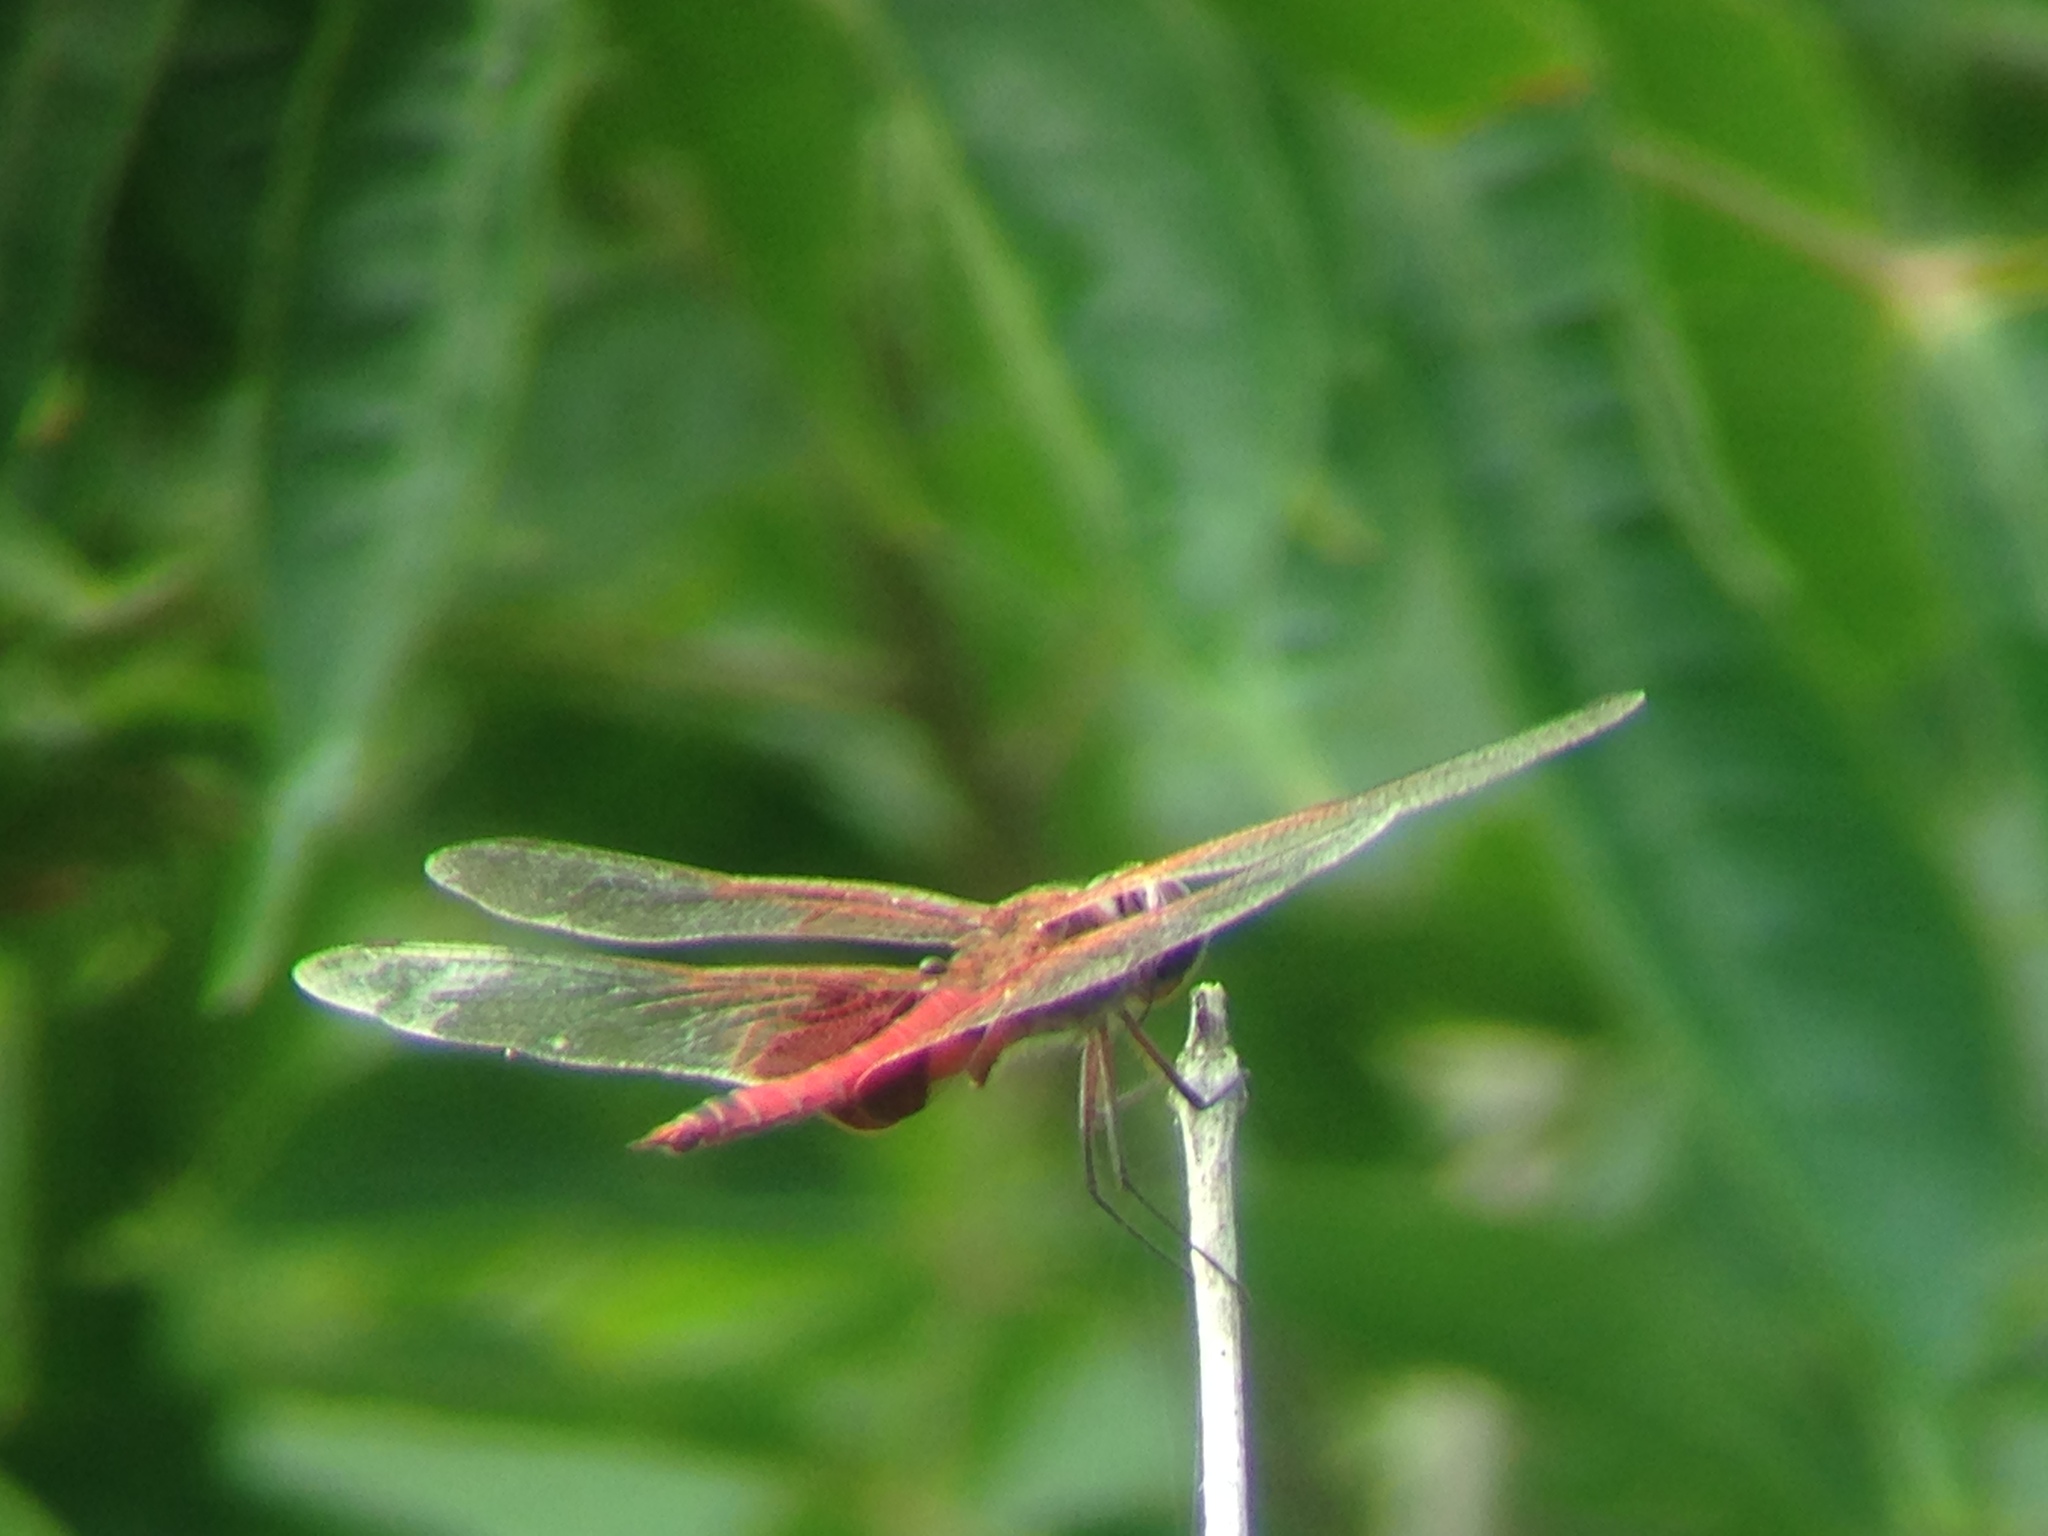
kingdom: Animalia
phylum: Arthropoda
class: Insecta
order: Odonata
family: Libellulidae
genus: Tramea
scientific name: Tramea onusta
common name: Red saddlebags
